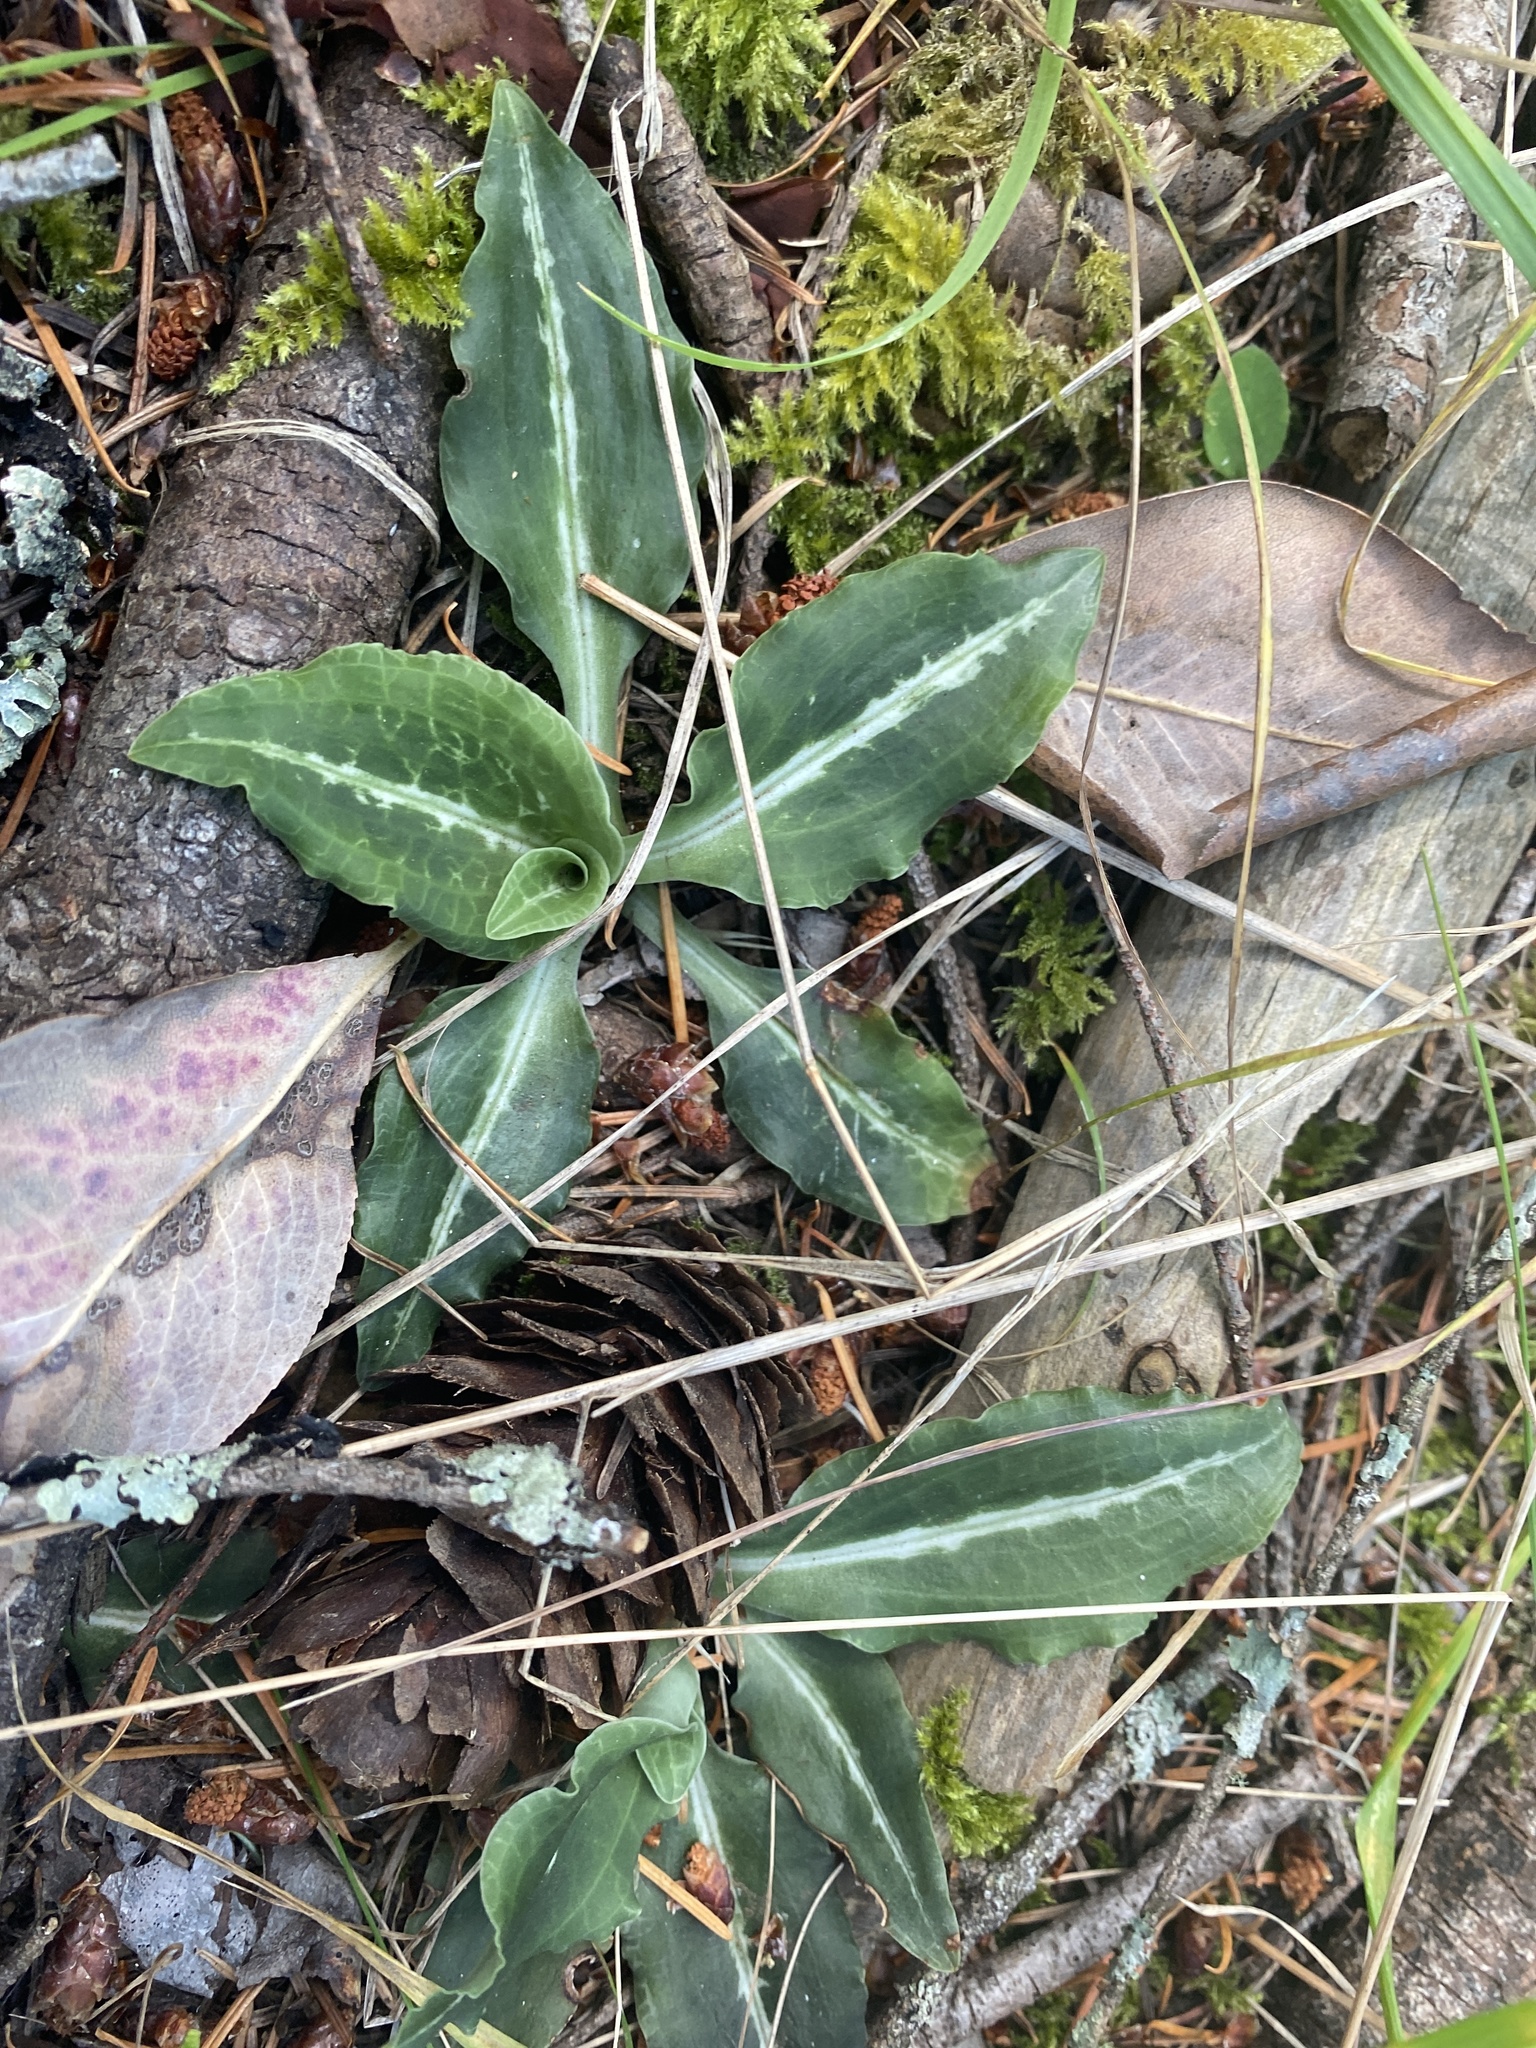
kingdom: Plantae
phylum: Tracheophyta
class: Liliopsida
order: Asparagales
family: Orchidaceae
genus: Goodyera
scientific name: Goodyera oblongifolia
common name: Giant rattlesnake-plantain
